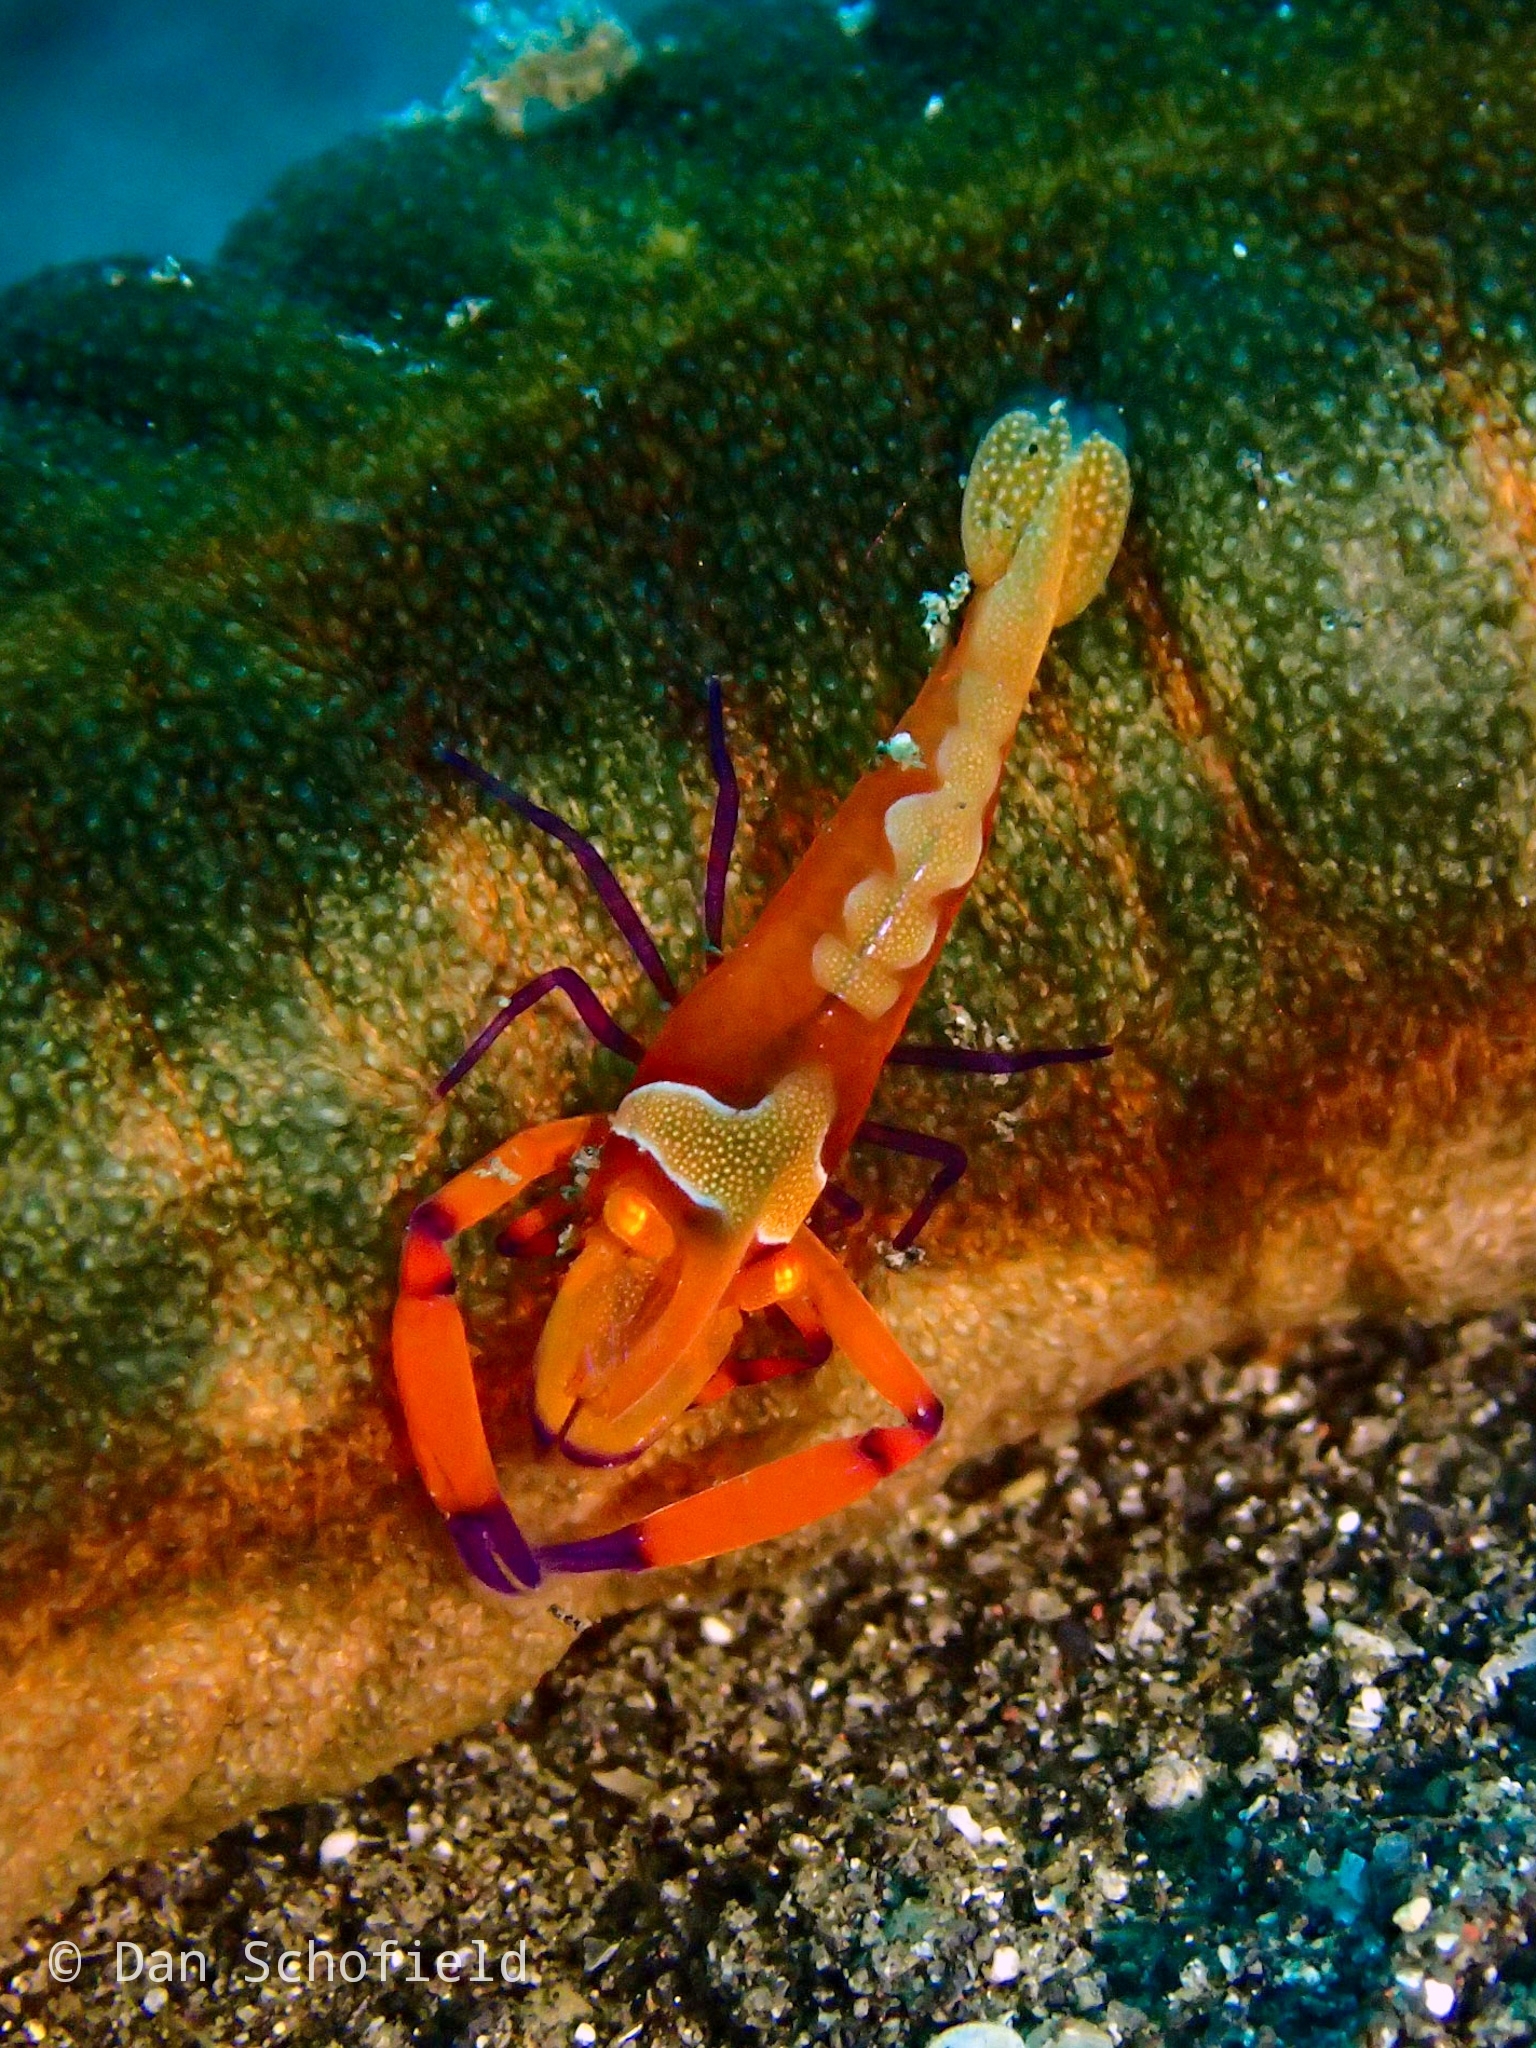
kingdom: Animalia
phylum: Arthropoda
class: Malacostraca
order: Decapoda
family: Palaemonidae
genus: Periclimenes
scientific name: Periclimenes rex
